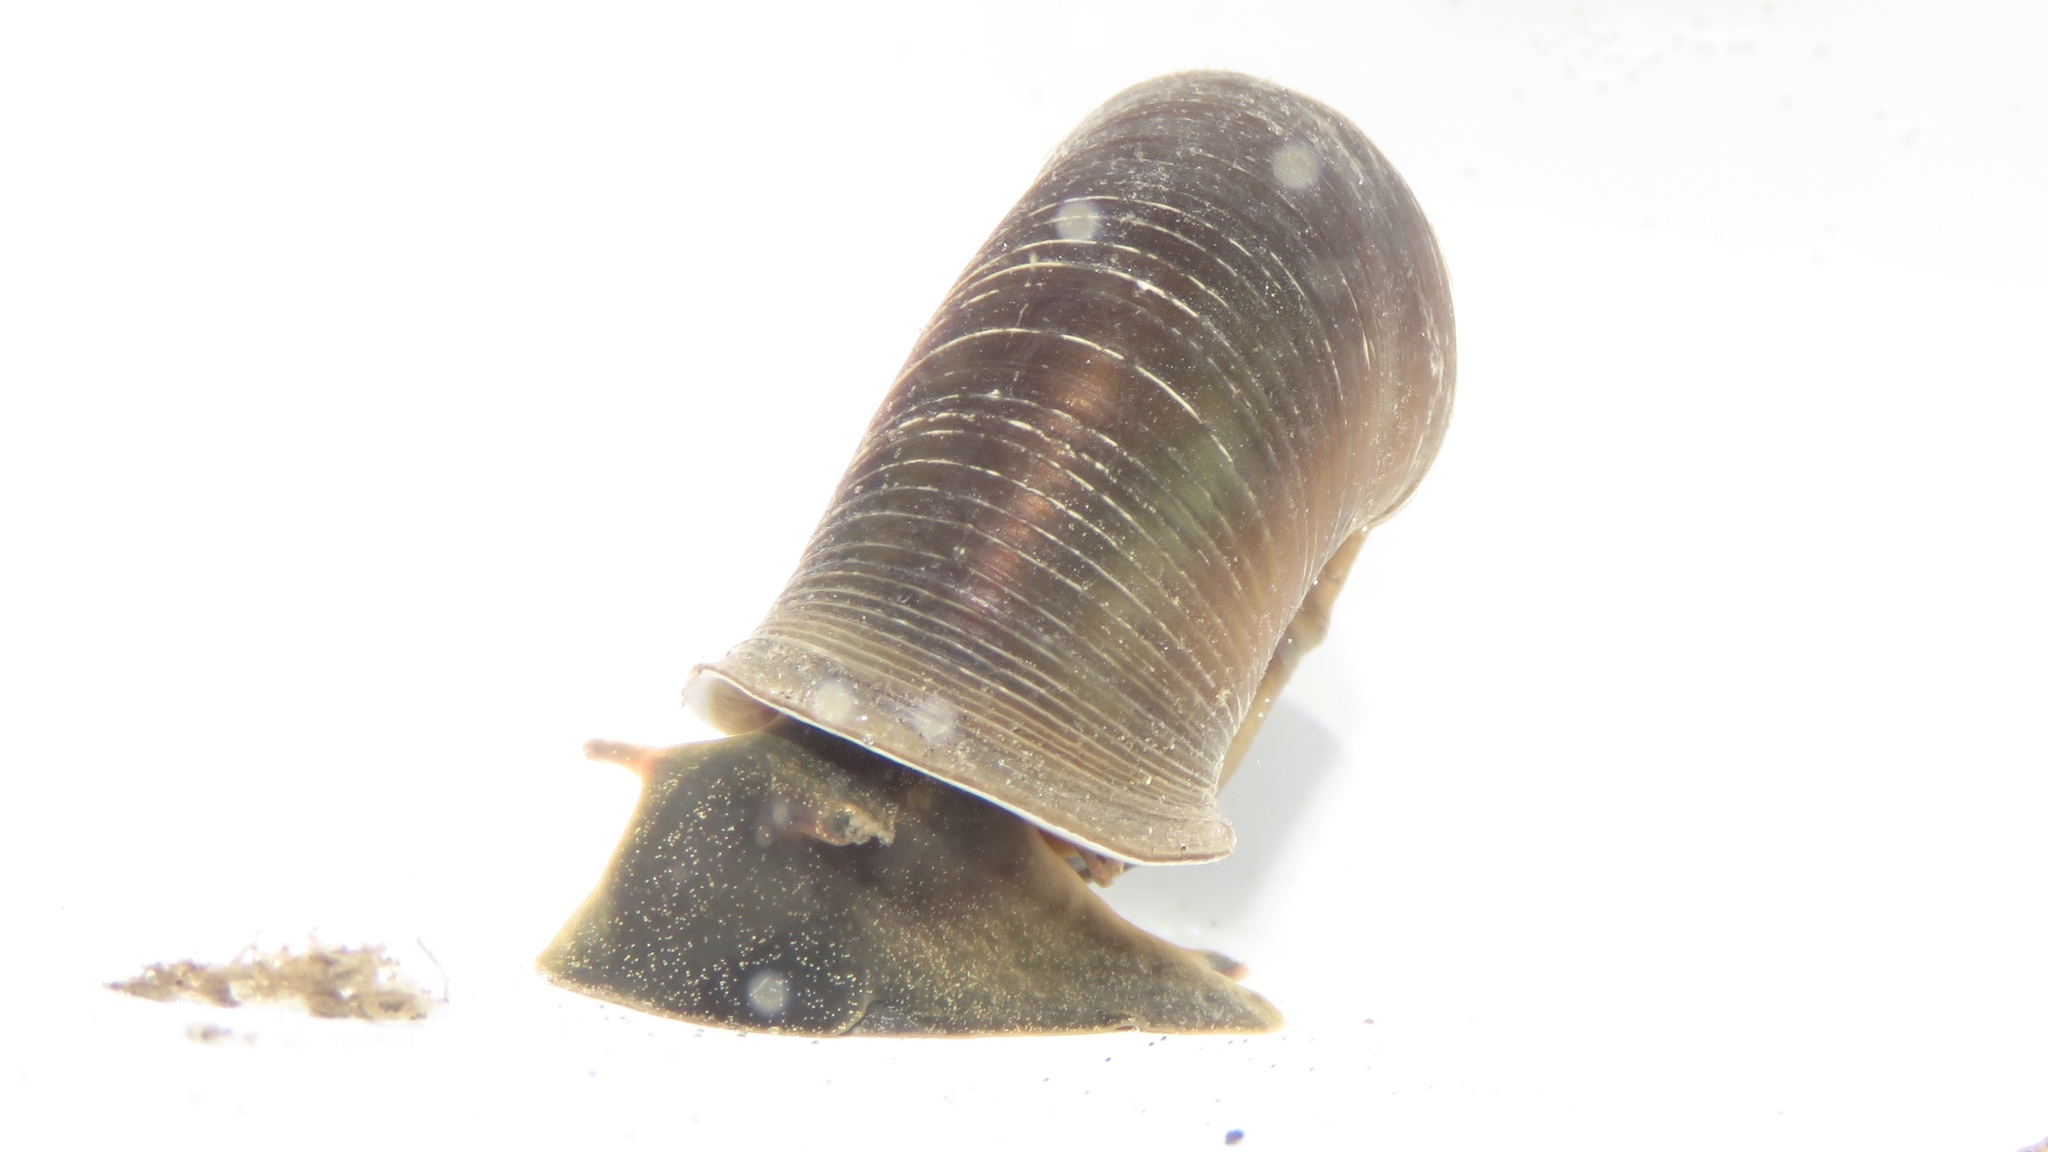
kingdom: Animalia
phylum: Mollusca
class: Gastropoda
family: Planorbidae
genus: Planorbella
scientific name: Planorbella trivolvis
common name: Marsh rams-horn
